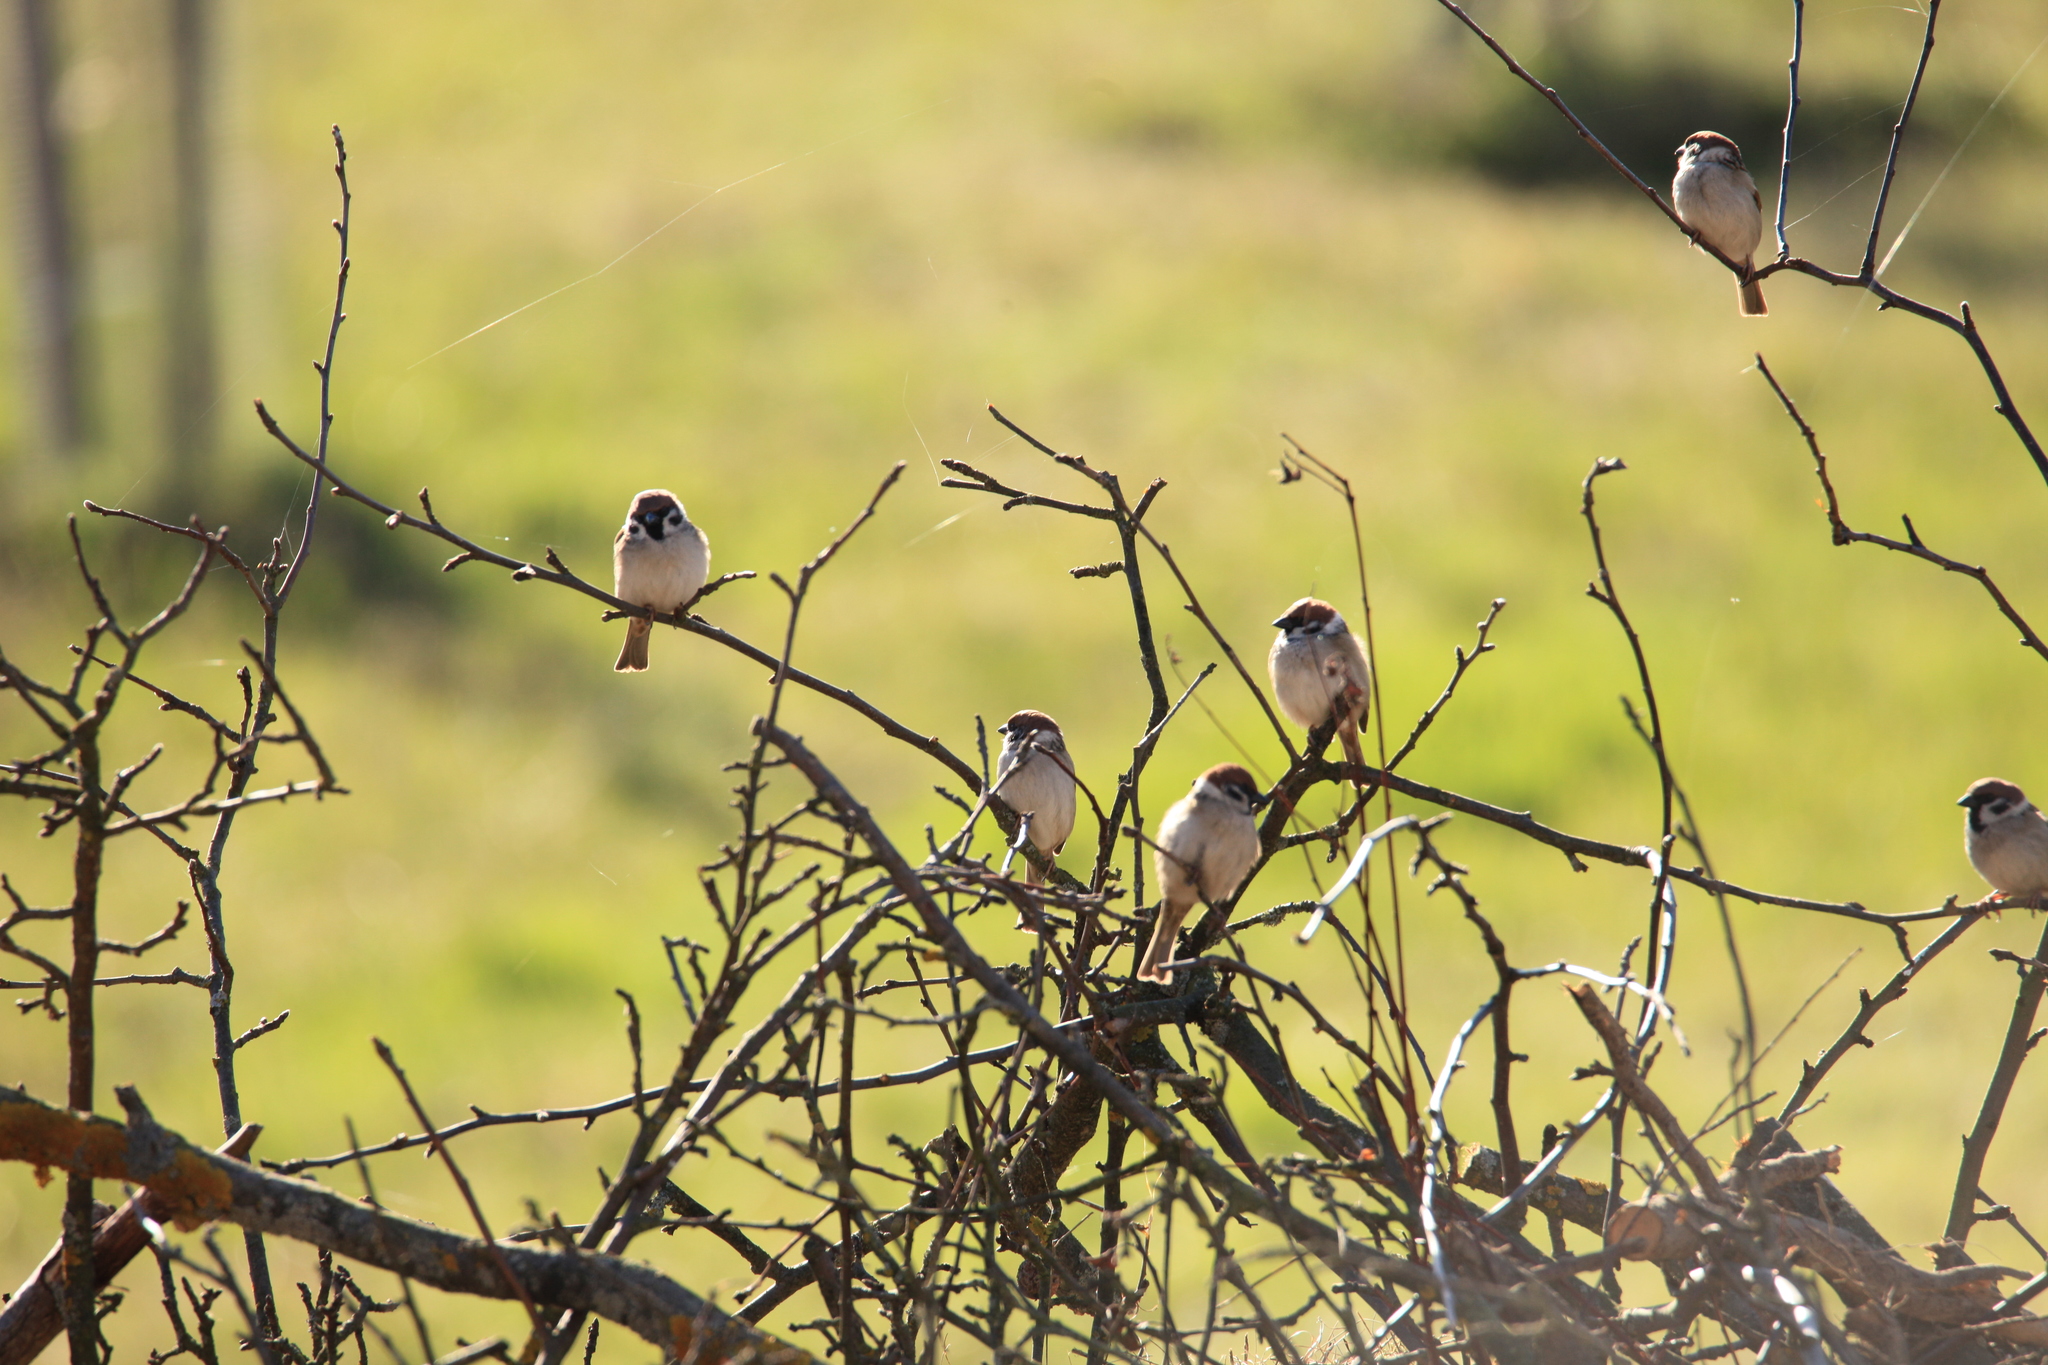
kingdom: Animalia
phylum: Chordata
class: Aves
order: Passeriformes
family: Passeridae
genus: Passer
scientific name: Passer montanus
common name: Eurasian tree sparrow
